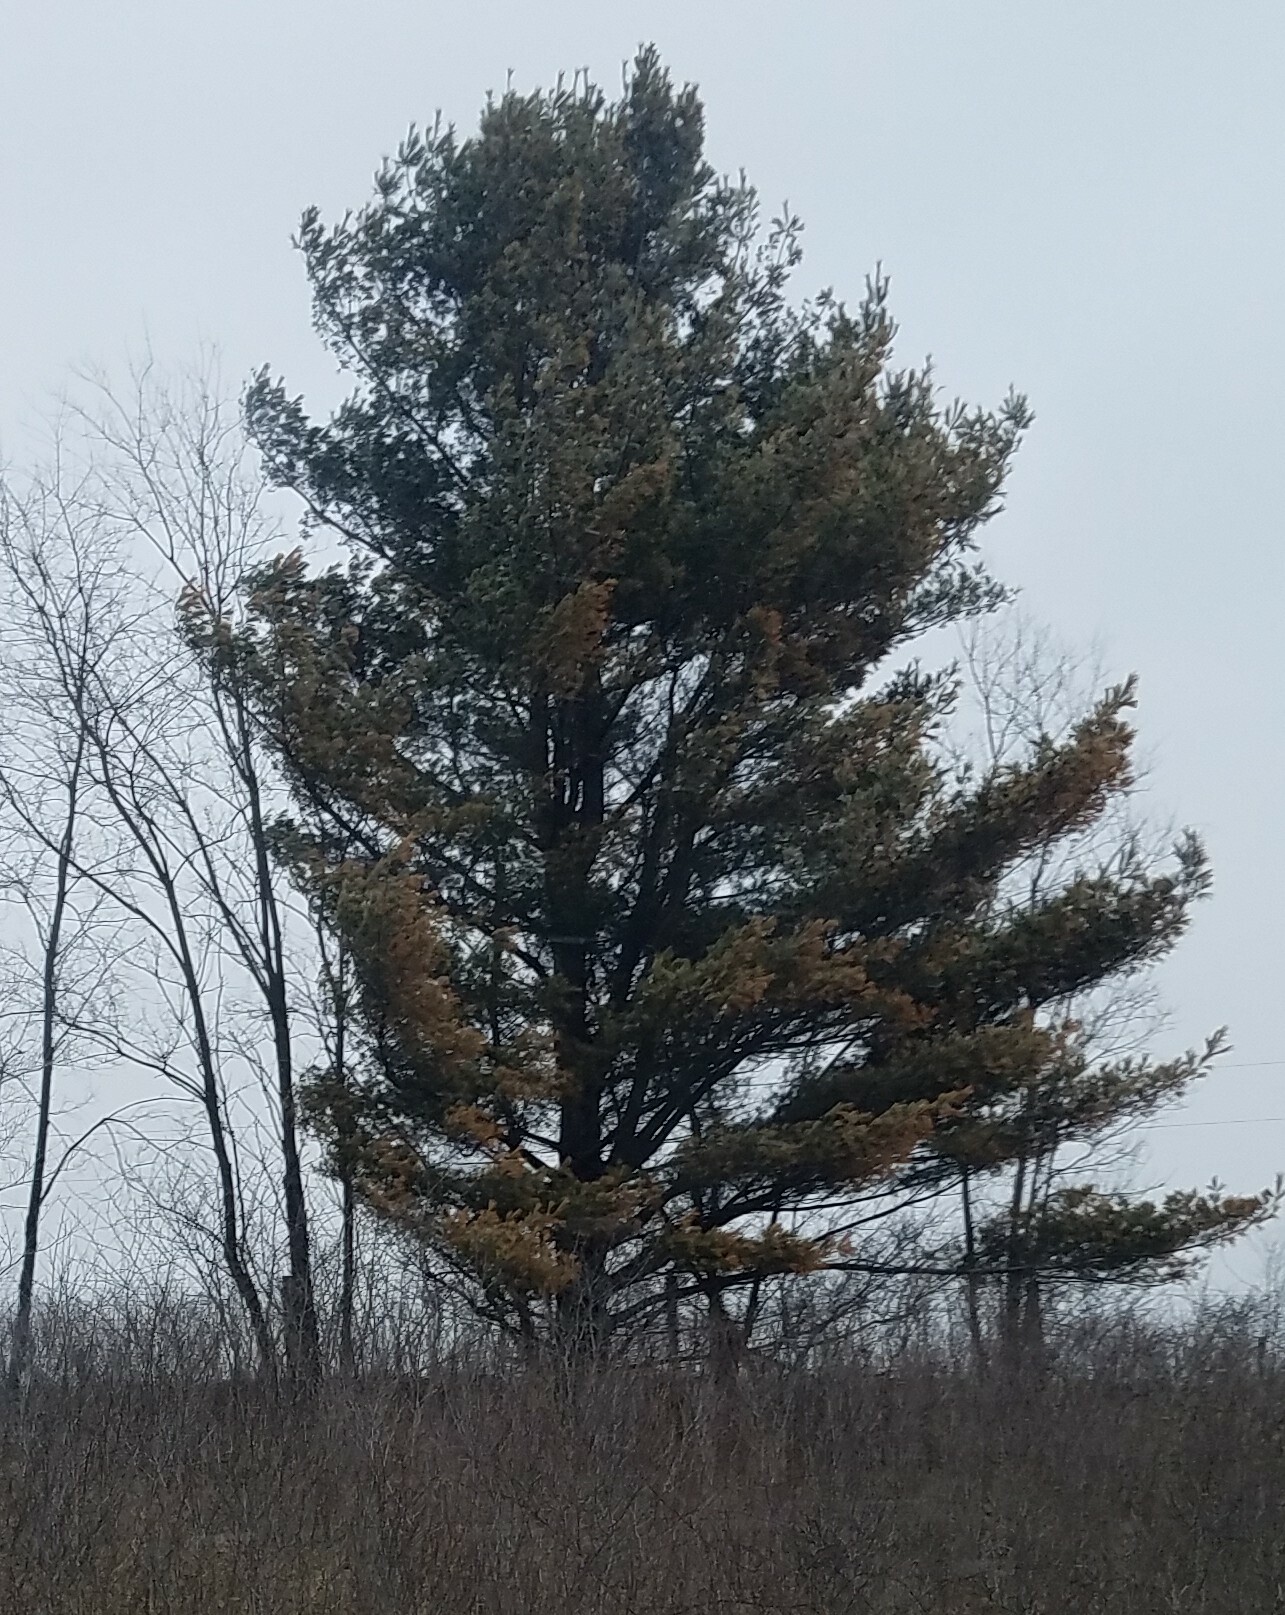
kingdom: Plantae
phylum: Tracheophyta
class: Pinopsida
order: Pinales
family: Pinaceae
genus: Pinus
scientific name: Pinus strobus
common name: Weymouth pine
